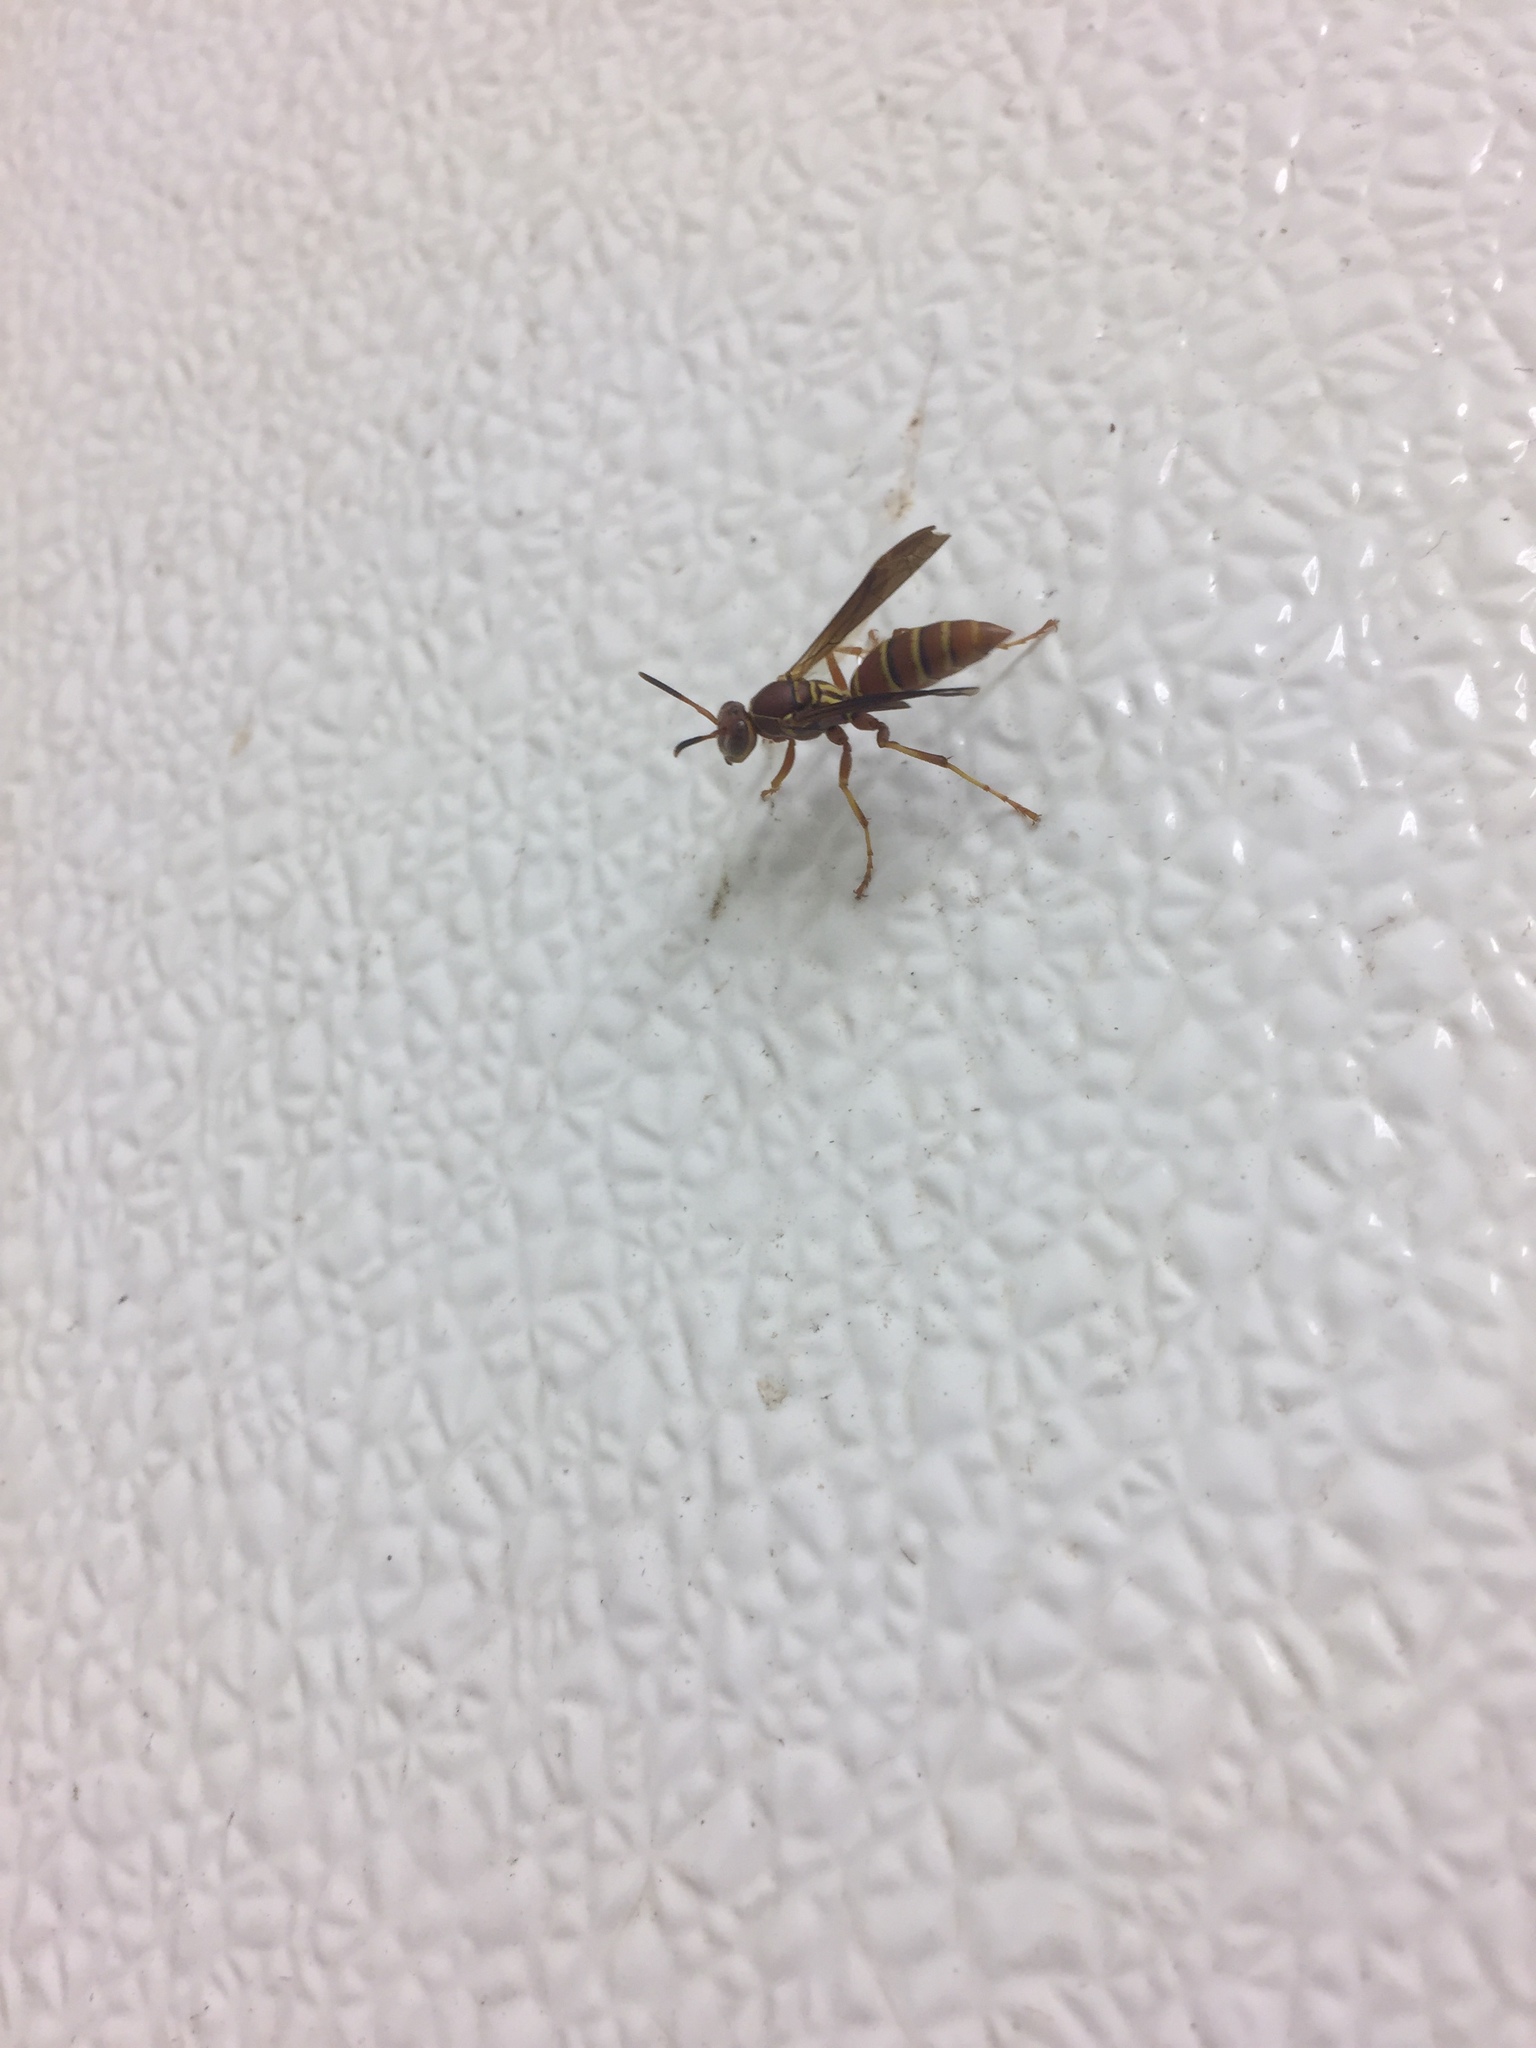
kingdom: Animalia
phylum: Arthropoda
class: Insecta
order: Hymenoptera
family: Vespidae
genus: Fuscopolistes
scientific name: Fuscopolistes
